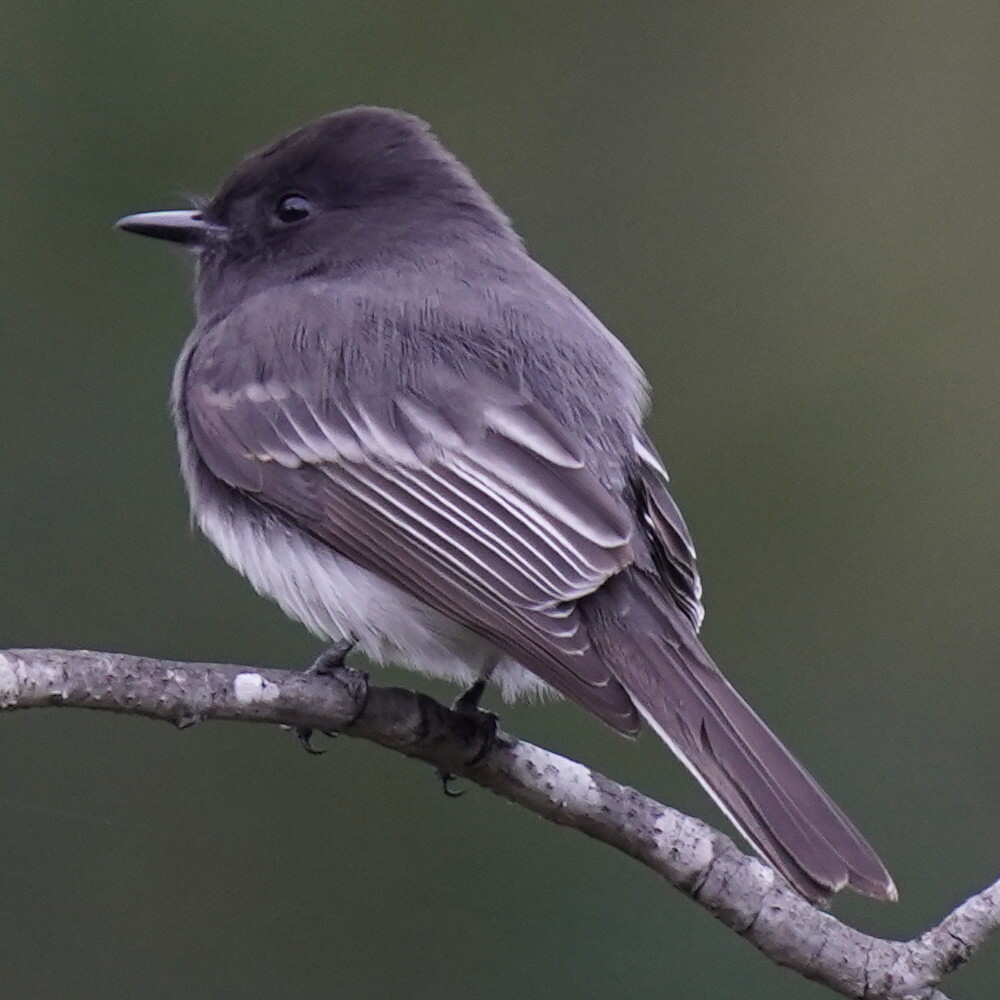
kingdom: Animalia
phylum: Chordata
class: Aves
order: Passeriformes
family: Tyrannidae
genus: Sayornis
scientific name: Sayornis nigricans
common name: Black phoebe
